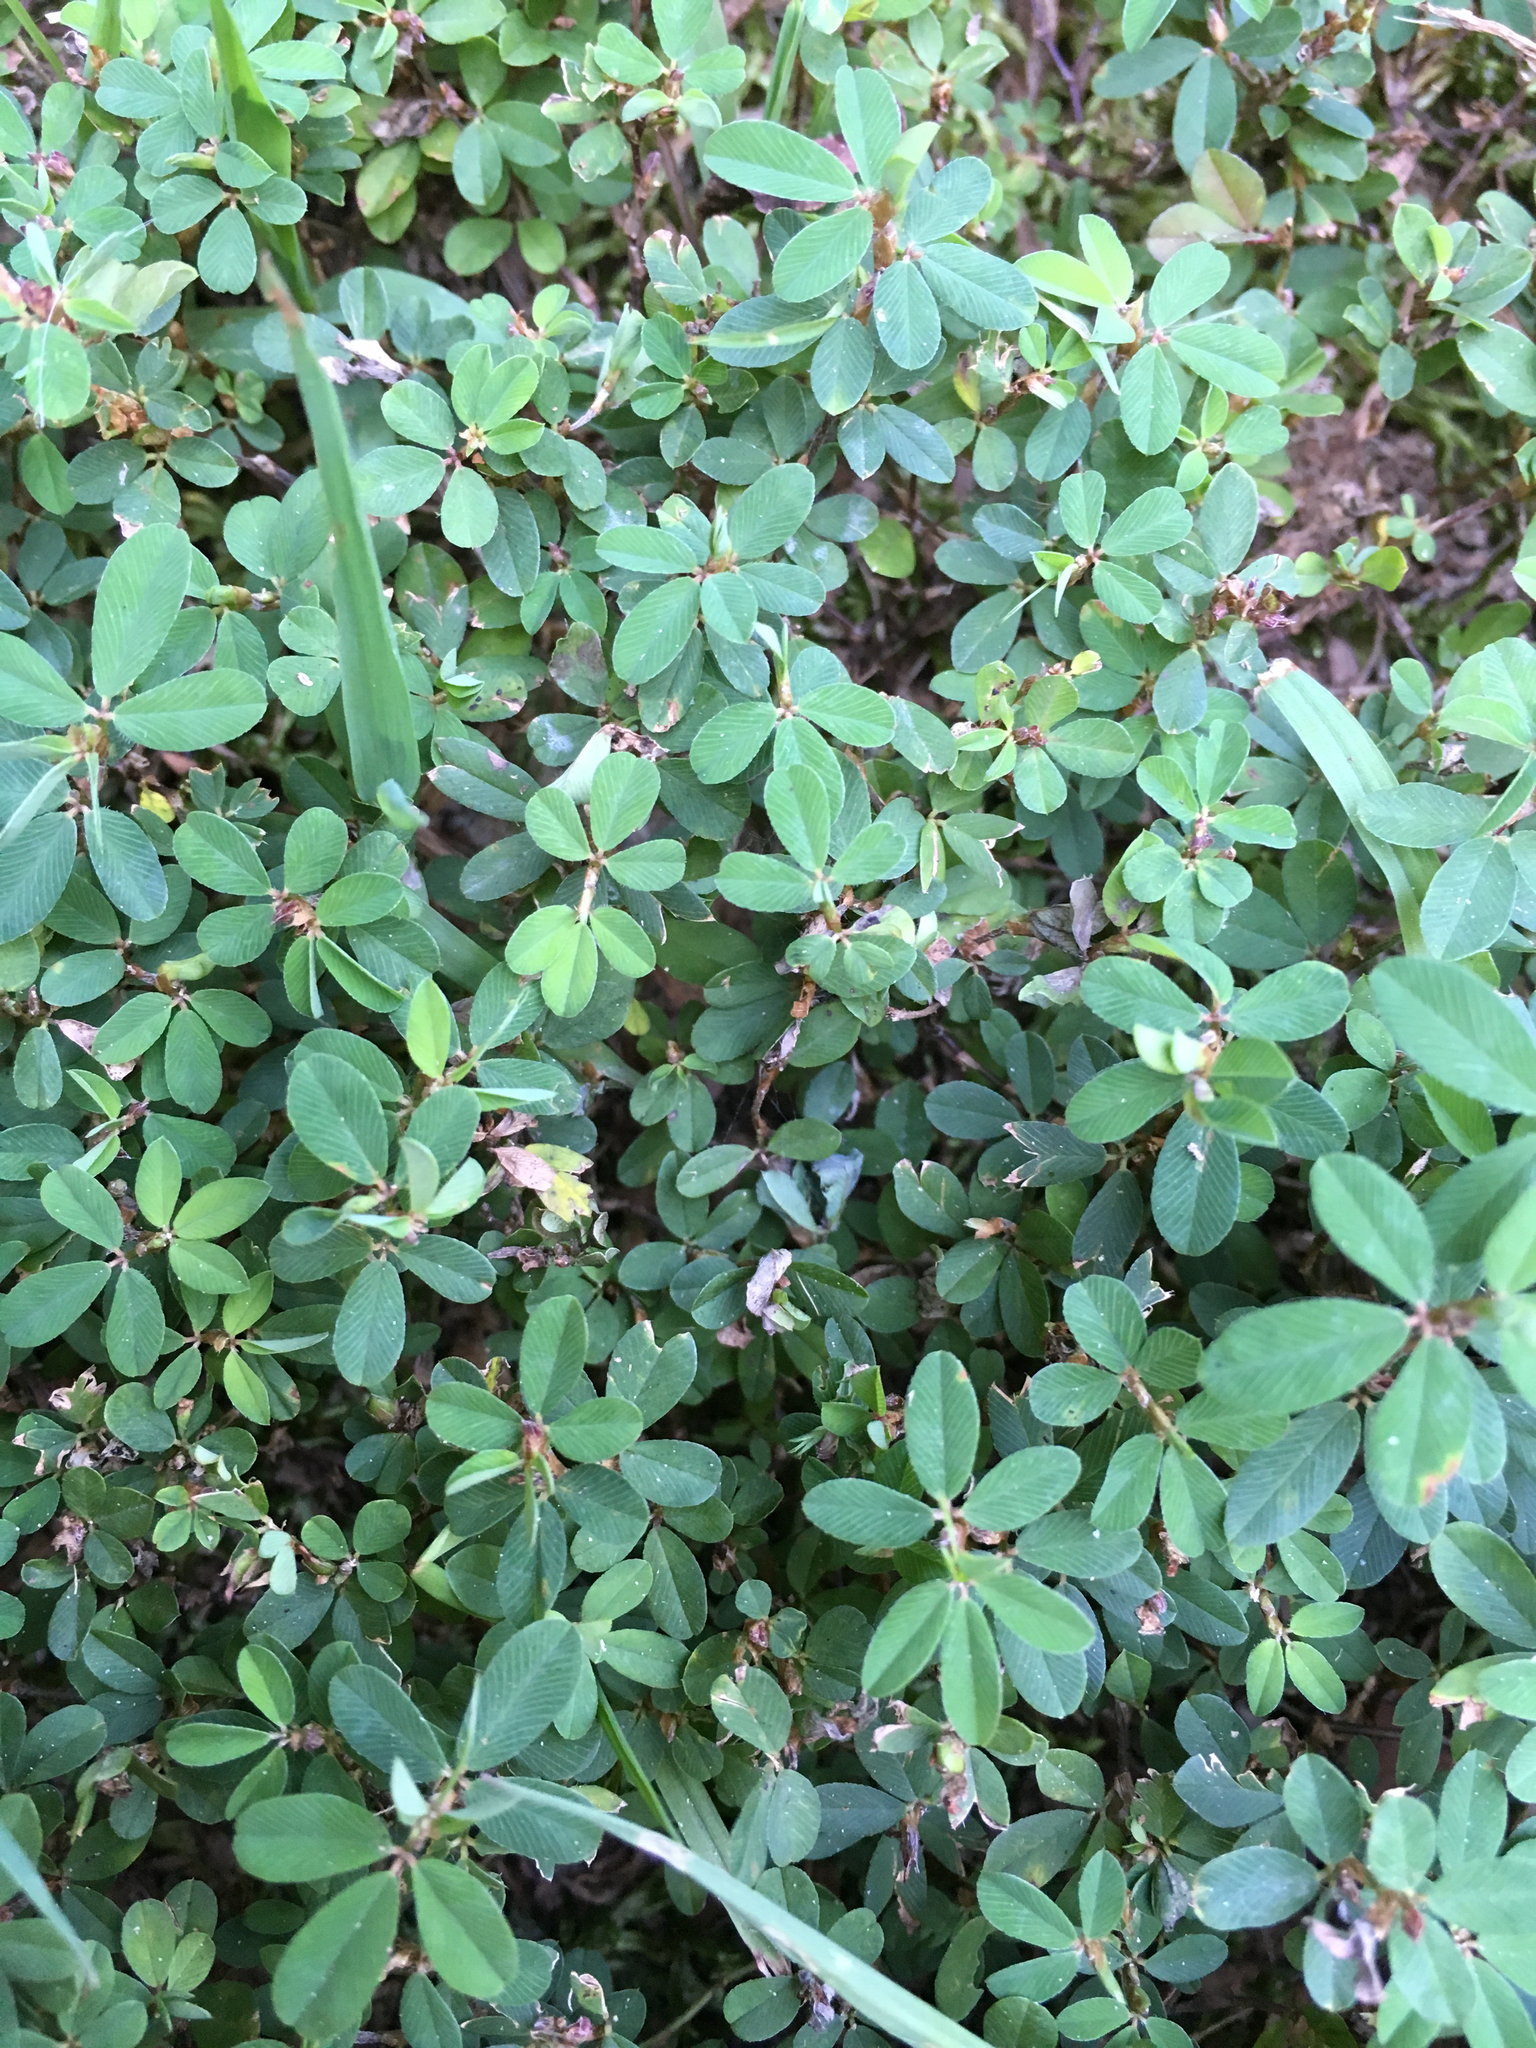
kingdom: Plantae
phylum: Tracheophyta
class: Magnoliopsida
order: Fabales
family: Fabaceae
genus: Kummerowia
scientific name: Kummerowia striata
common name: Japanese clover
